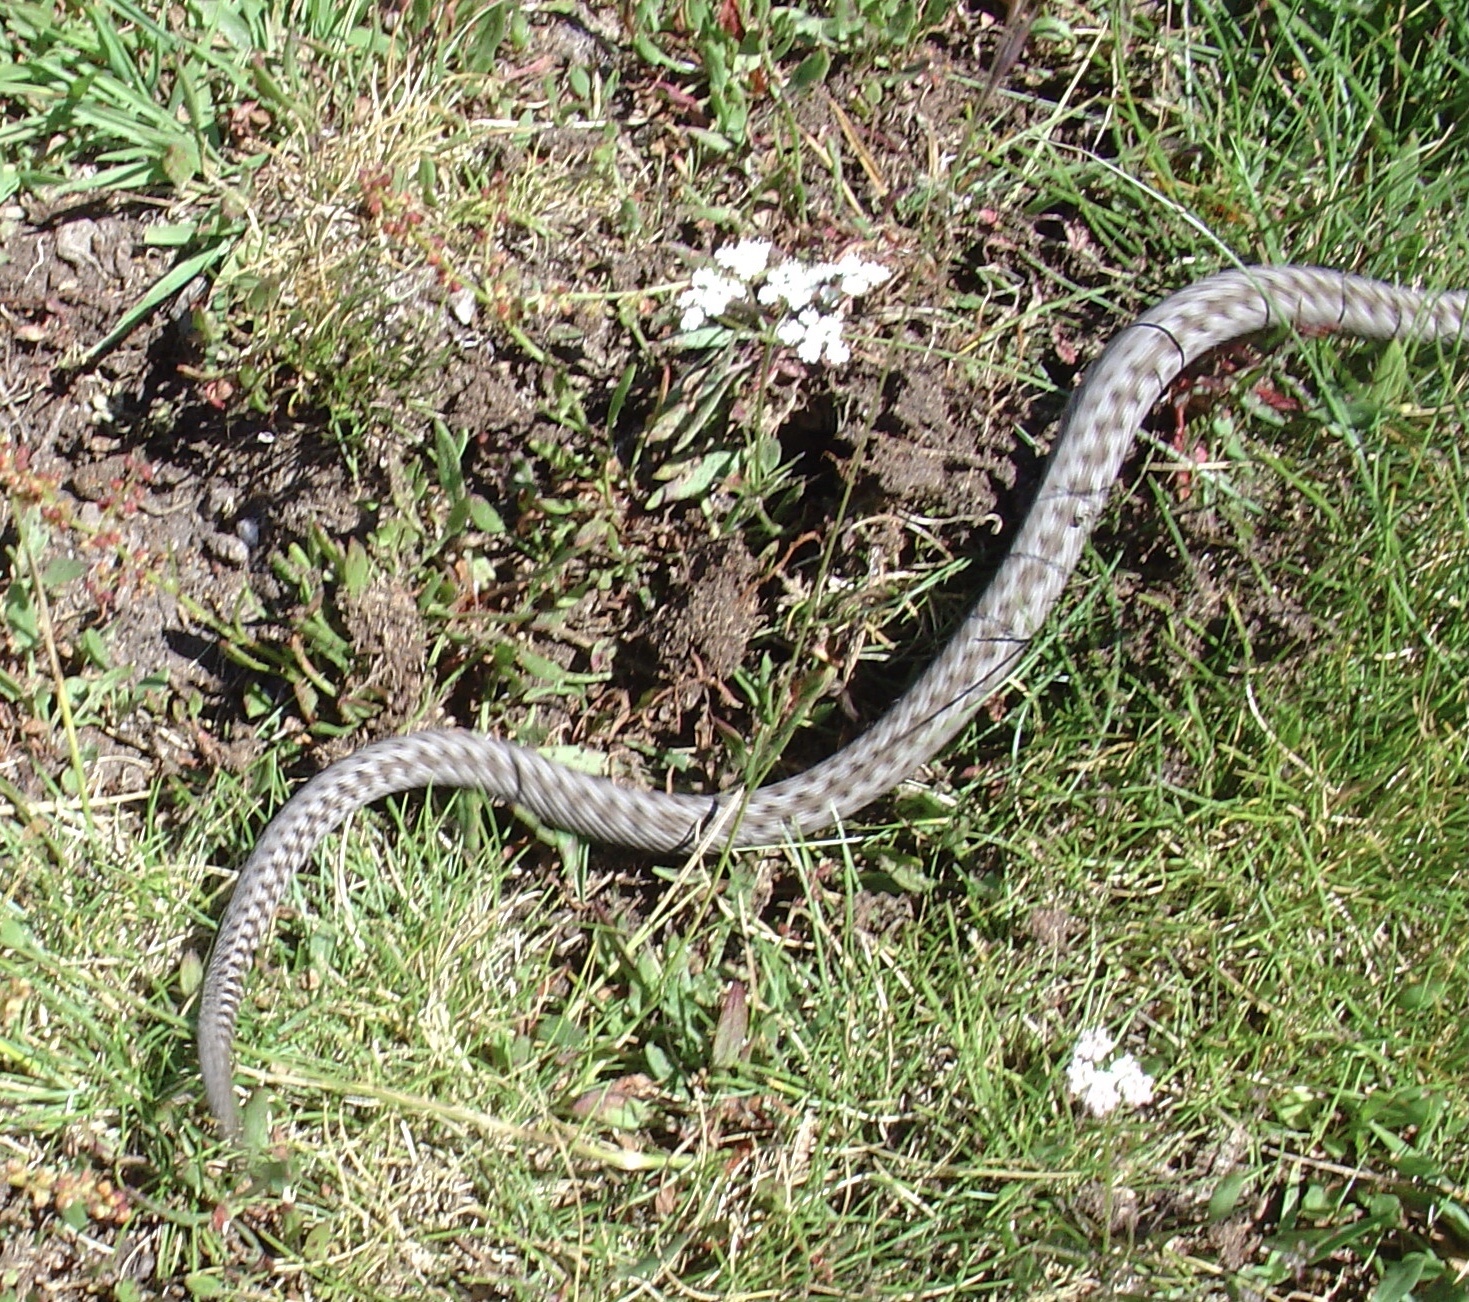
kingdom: Animalia
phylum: Chordata
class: Squamata
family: Viperidae
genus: Vipera
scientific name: Vipera seoanei
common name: Portugese viper
